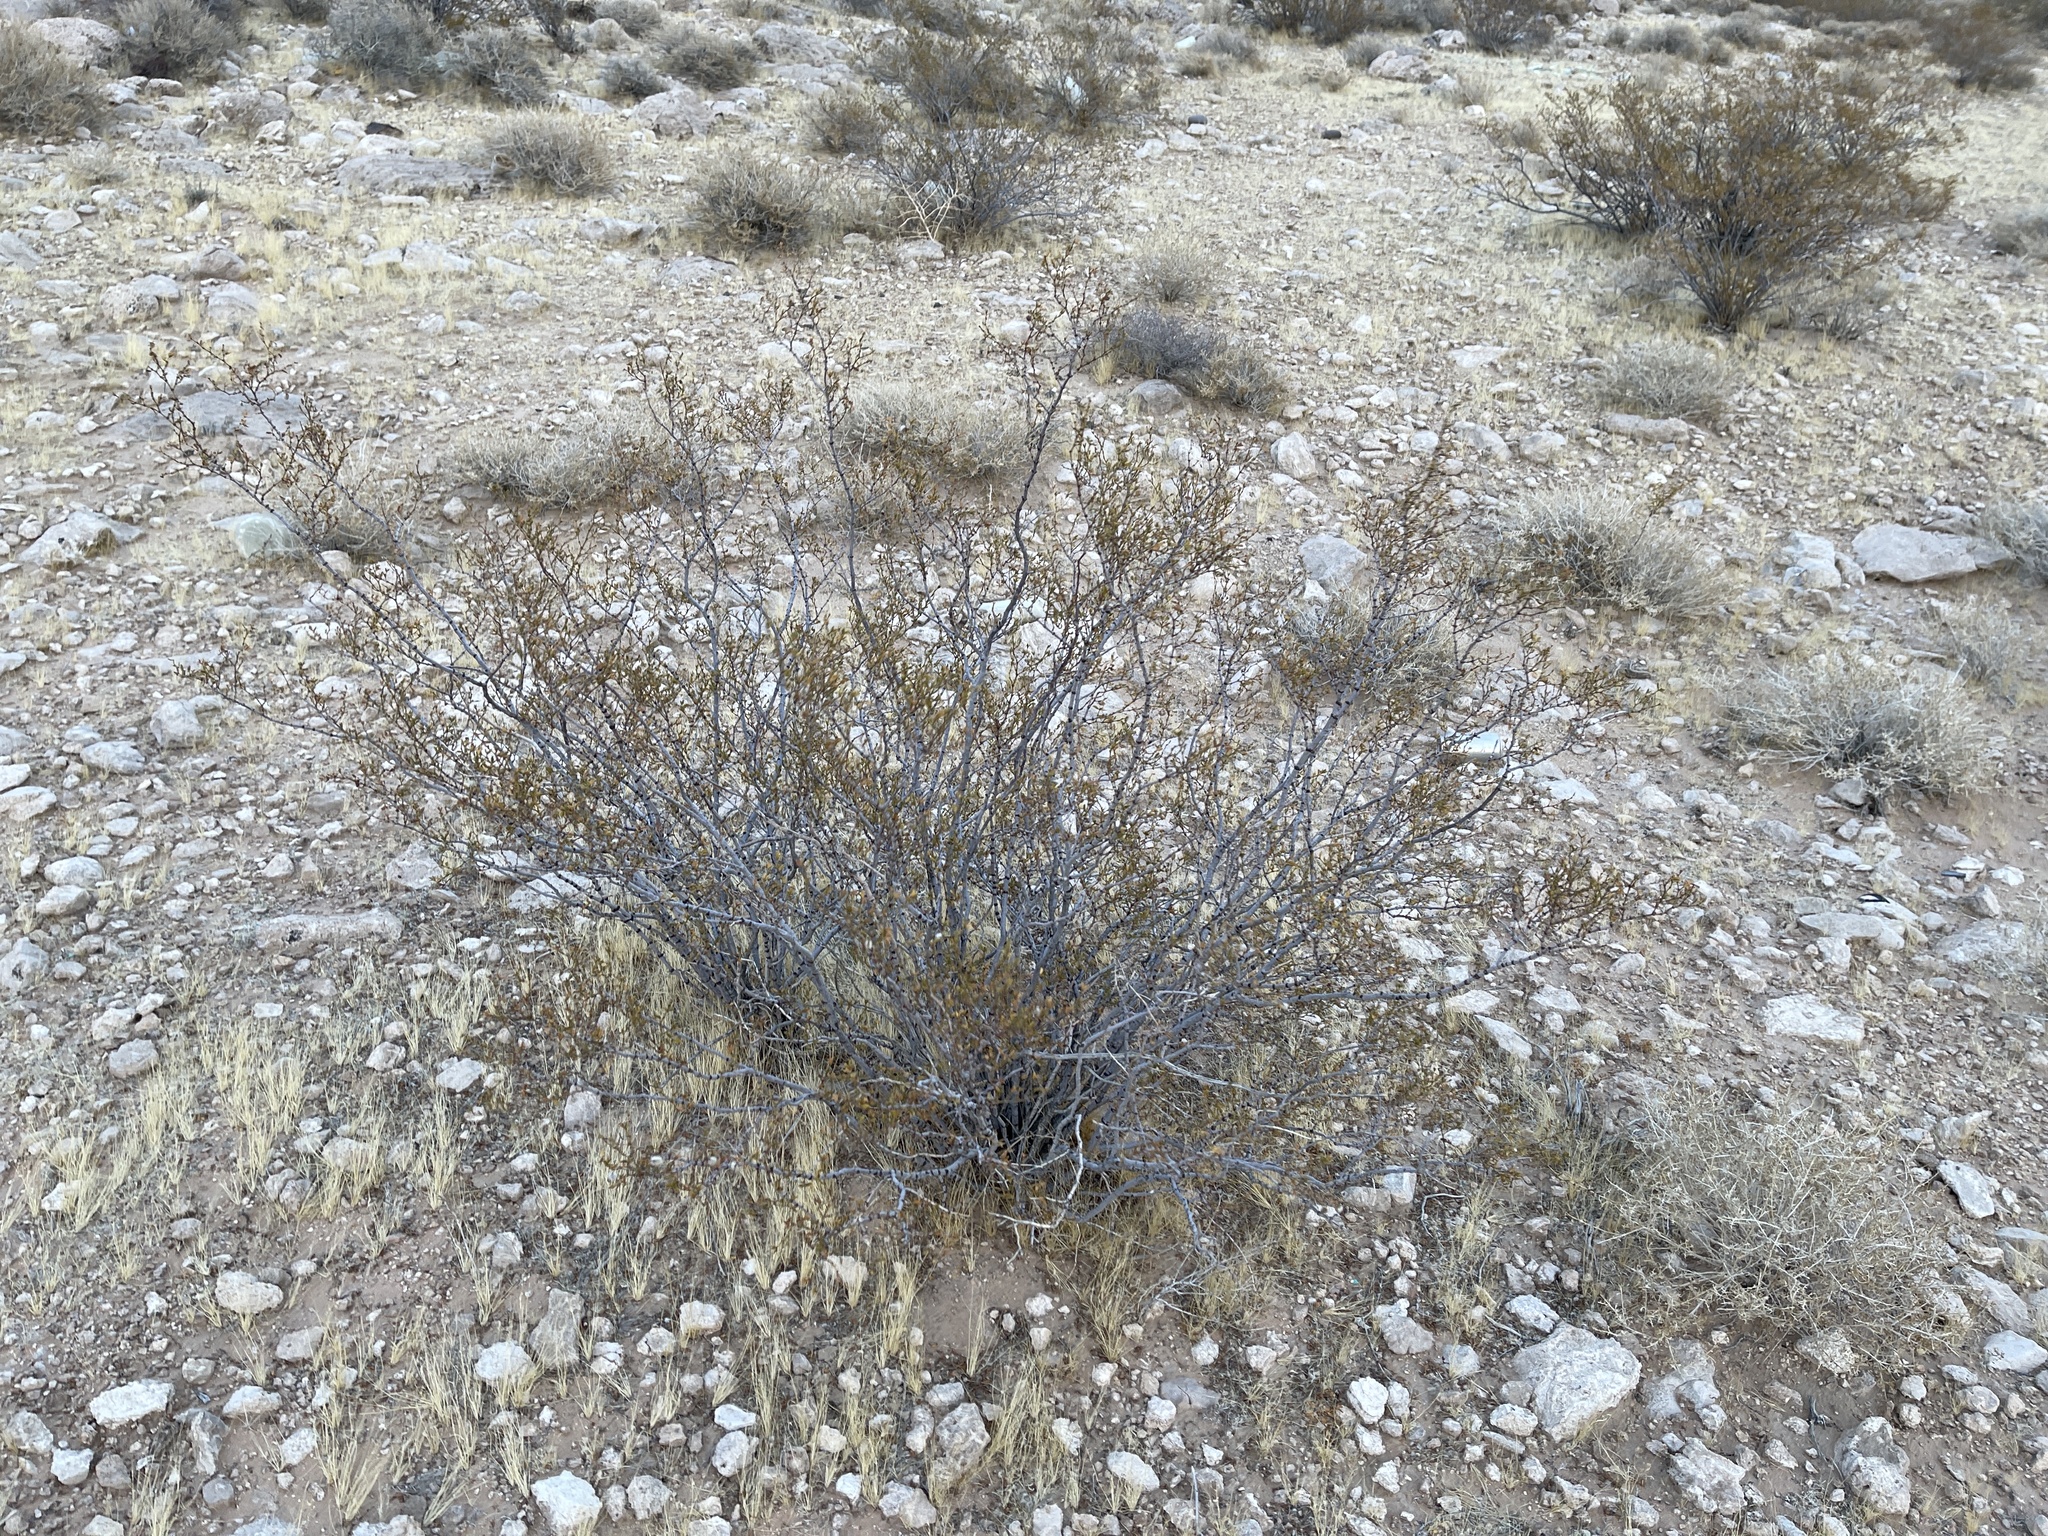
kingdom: Plantae
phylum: Tracheophyta
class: Magnoliopsida
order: Zygophyllales
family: Zygophyllaceae
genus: Larrea
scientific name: Larrea tridentata
